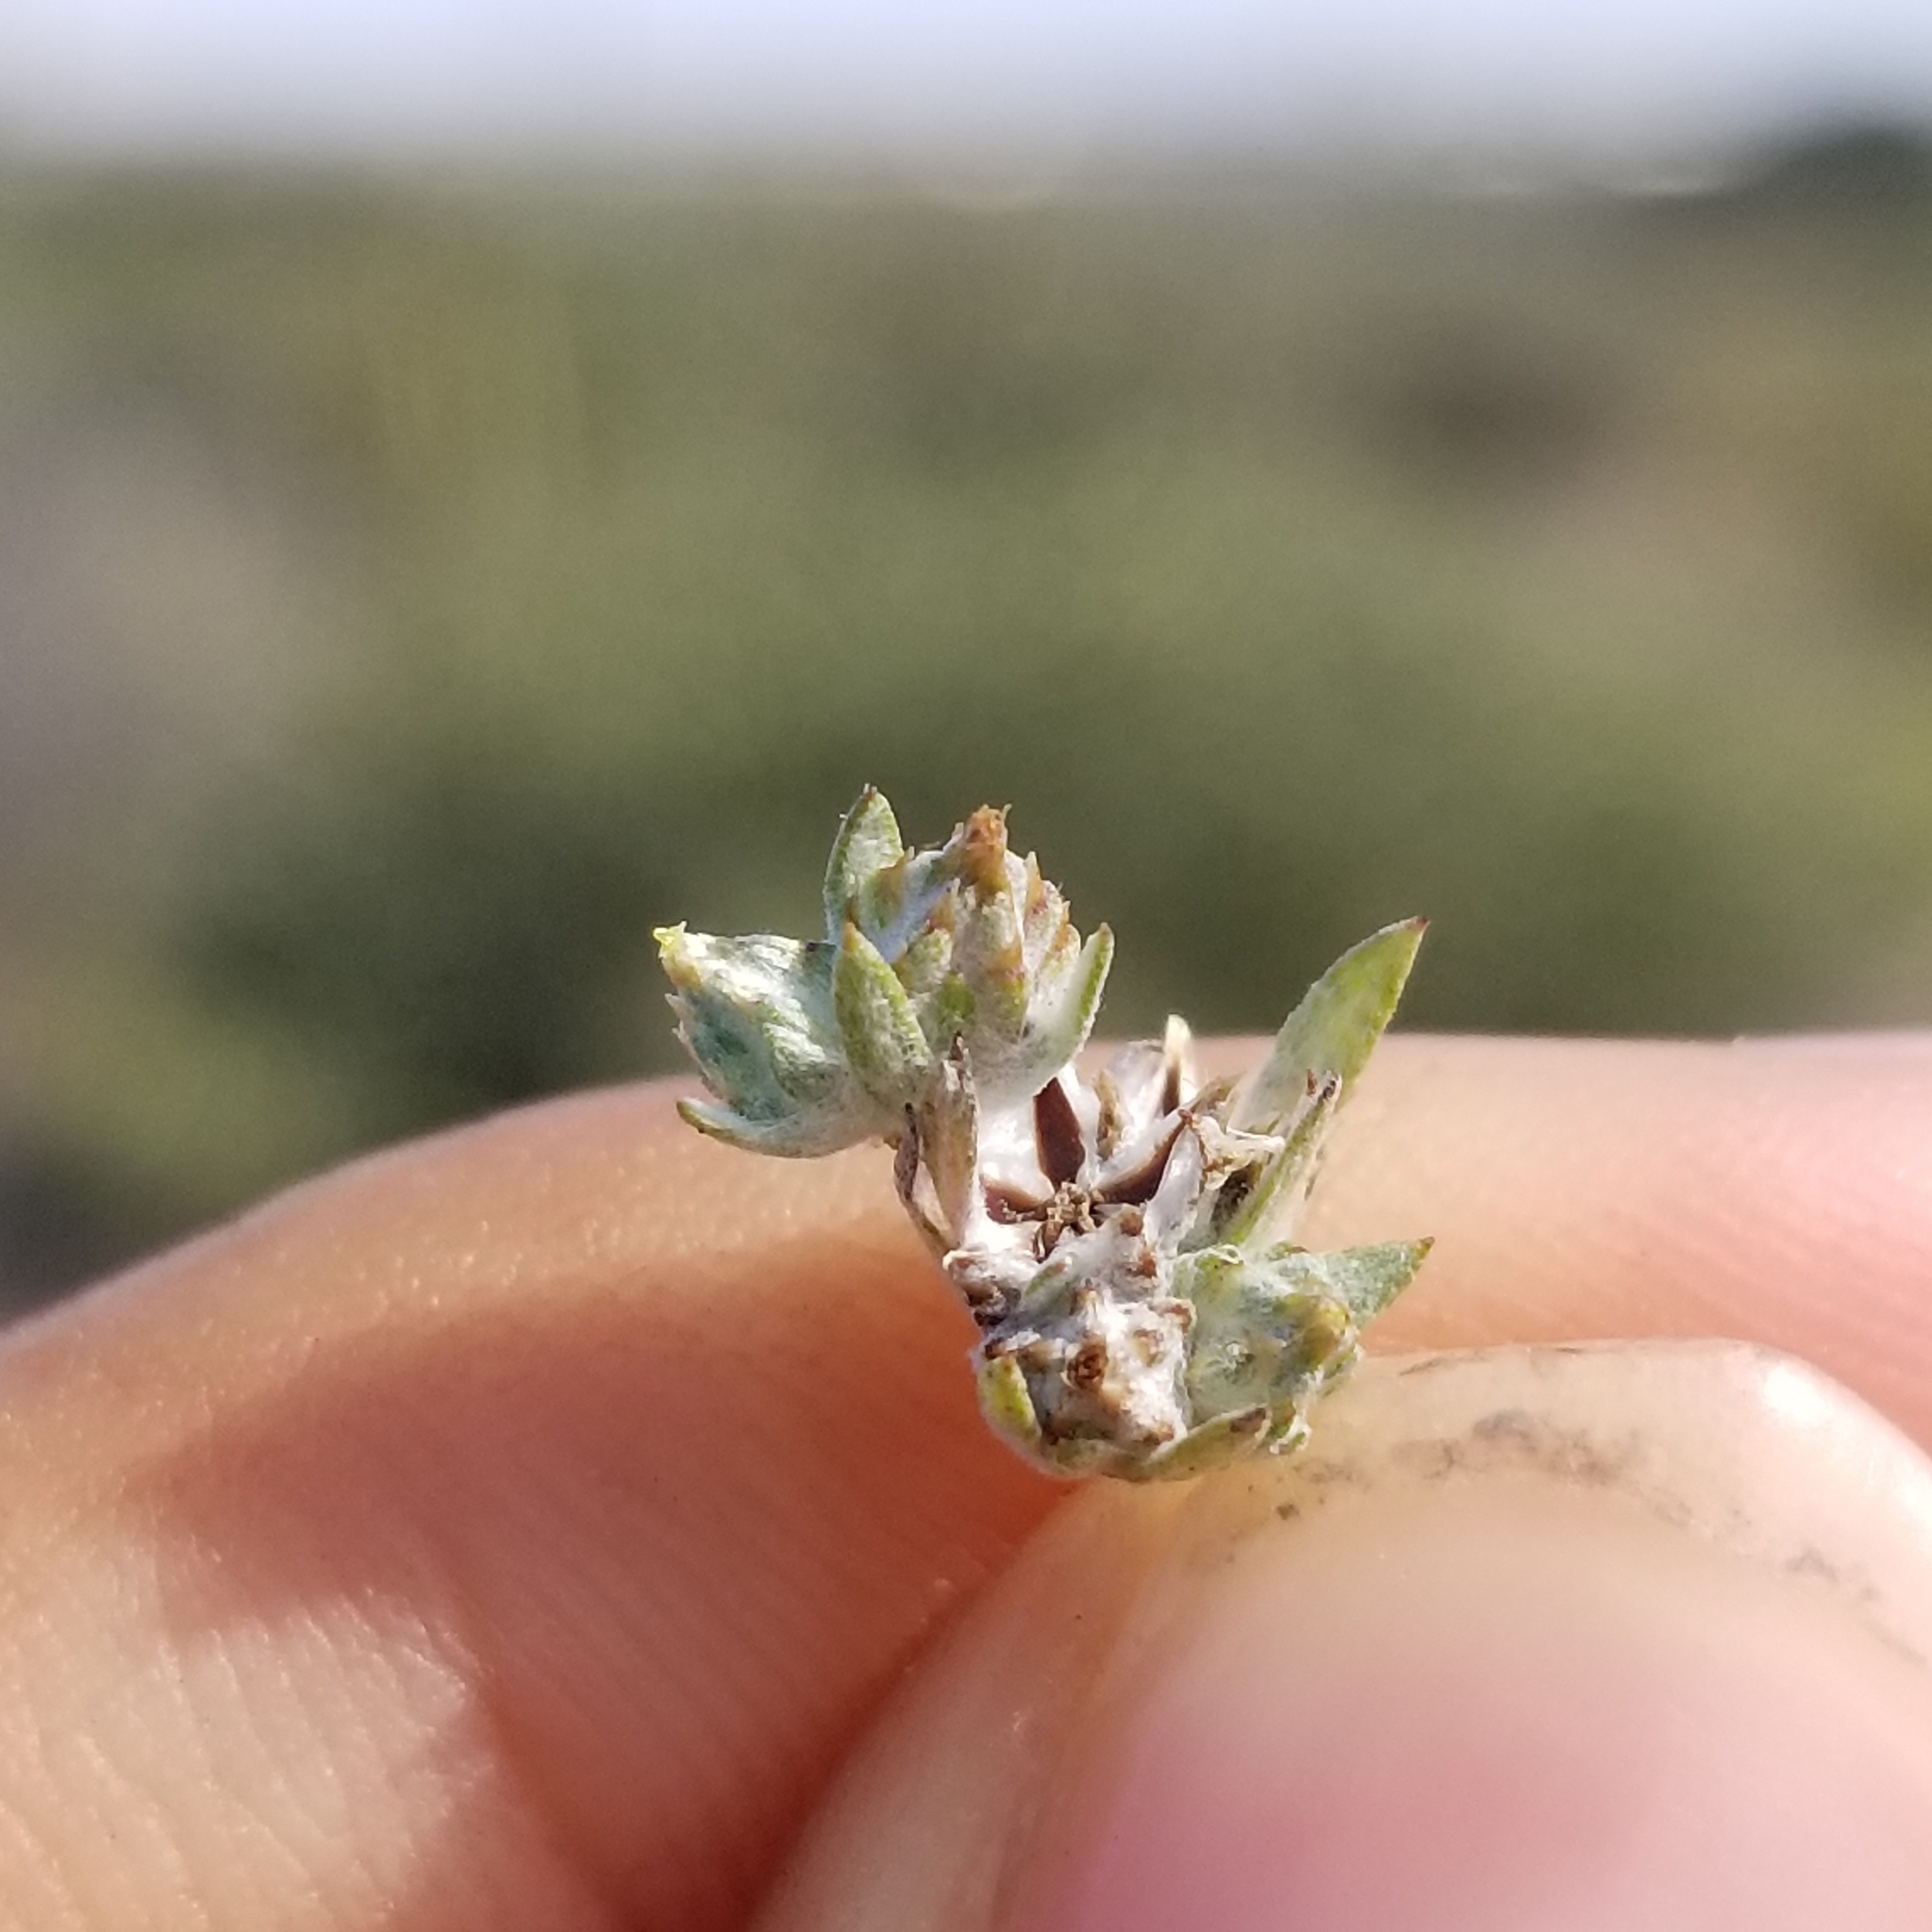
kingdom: Plantae
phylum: Tracheophyta
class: Magnoliopsida
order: Asterales
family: Asteraceae
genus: Logfia
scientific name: Logfia arizonica
